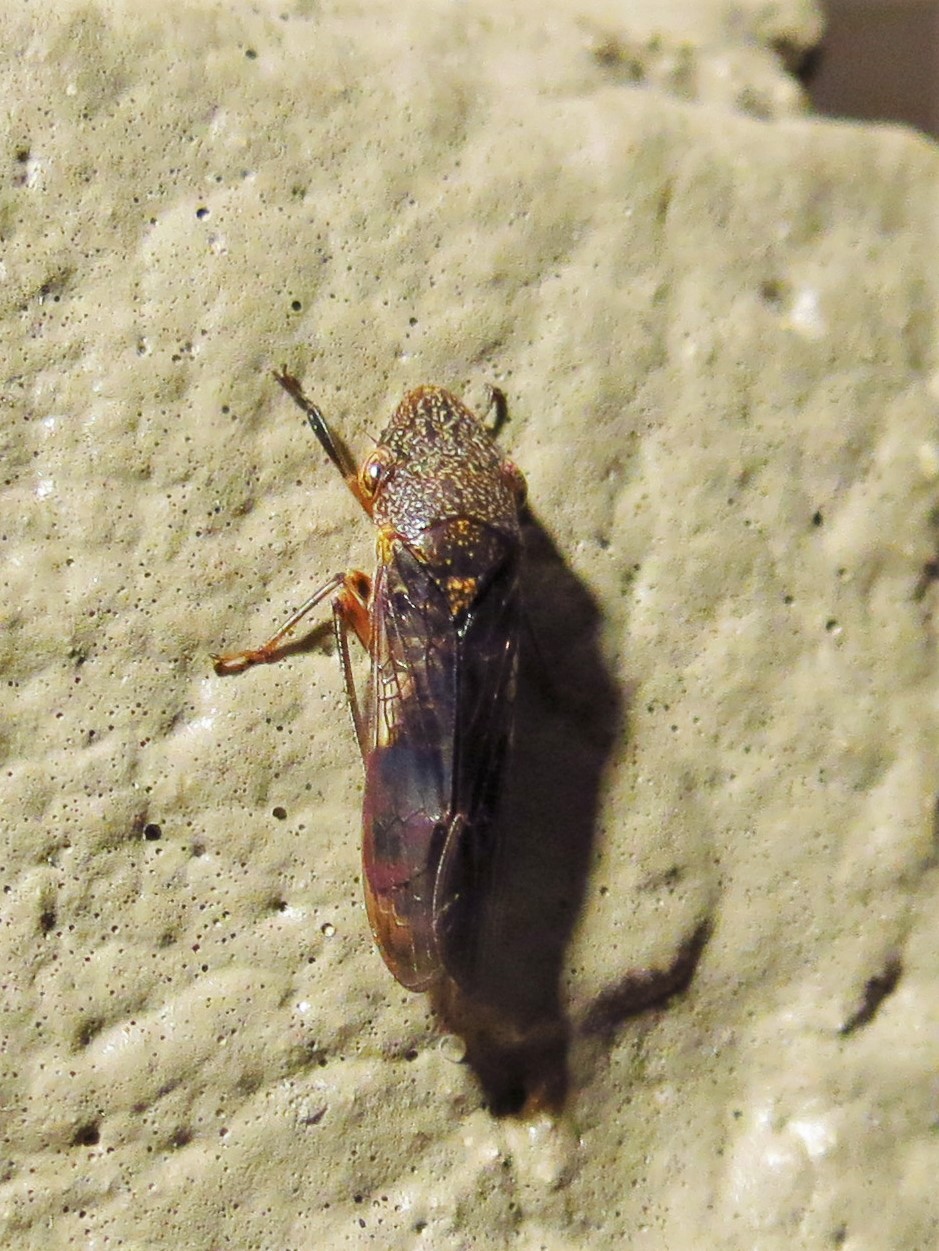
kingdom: Animalia
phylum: Arthropoda
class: Insecta
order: Hemiptera
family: Cicadellidae
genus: Homalodisca
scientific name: Homalodisca vitripennis
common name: Glassy-winged sharpshooter
